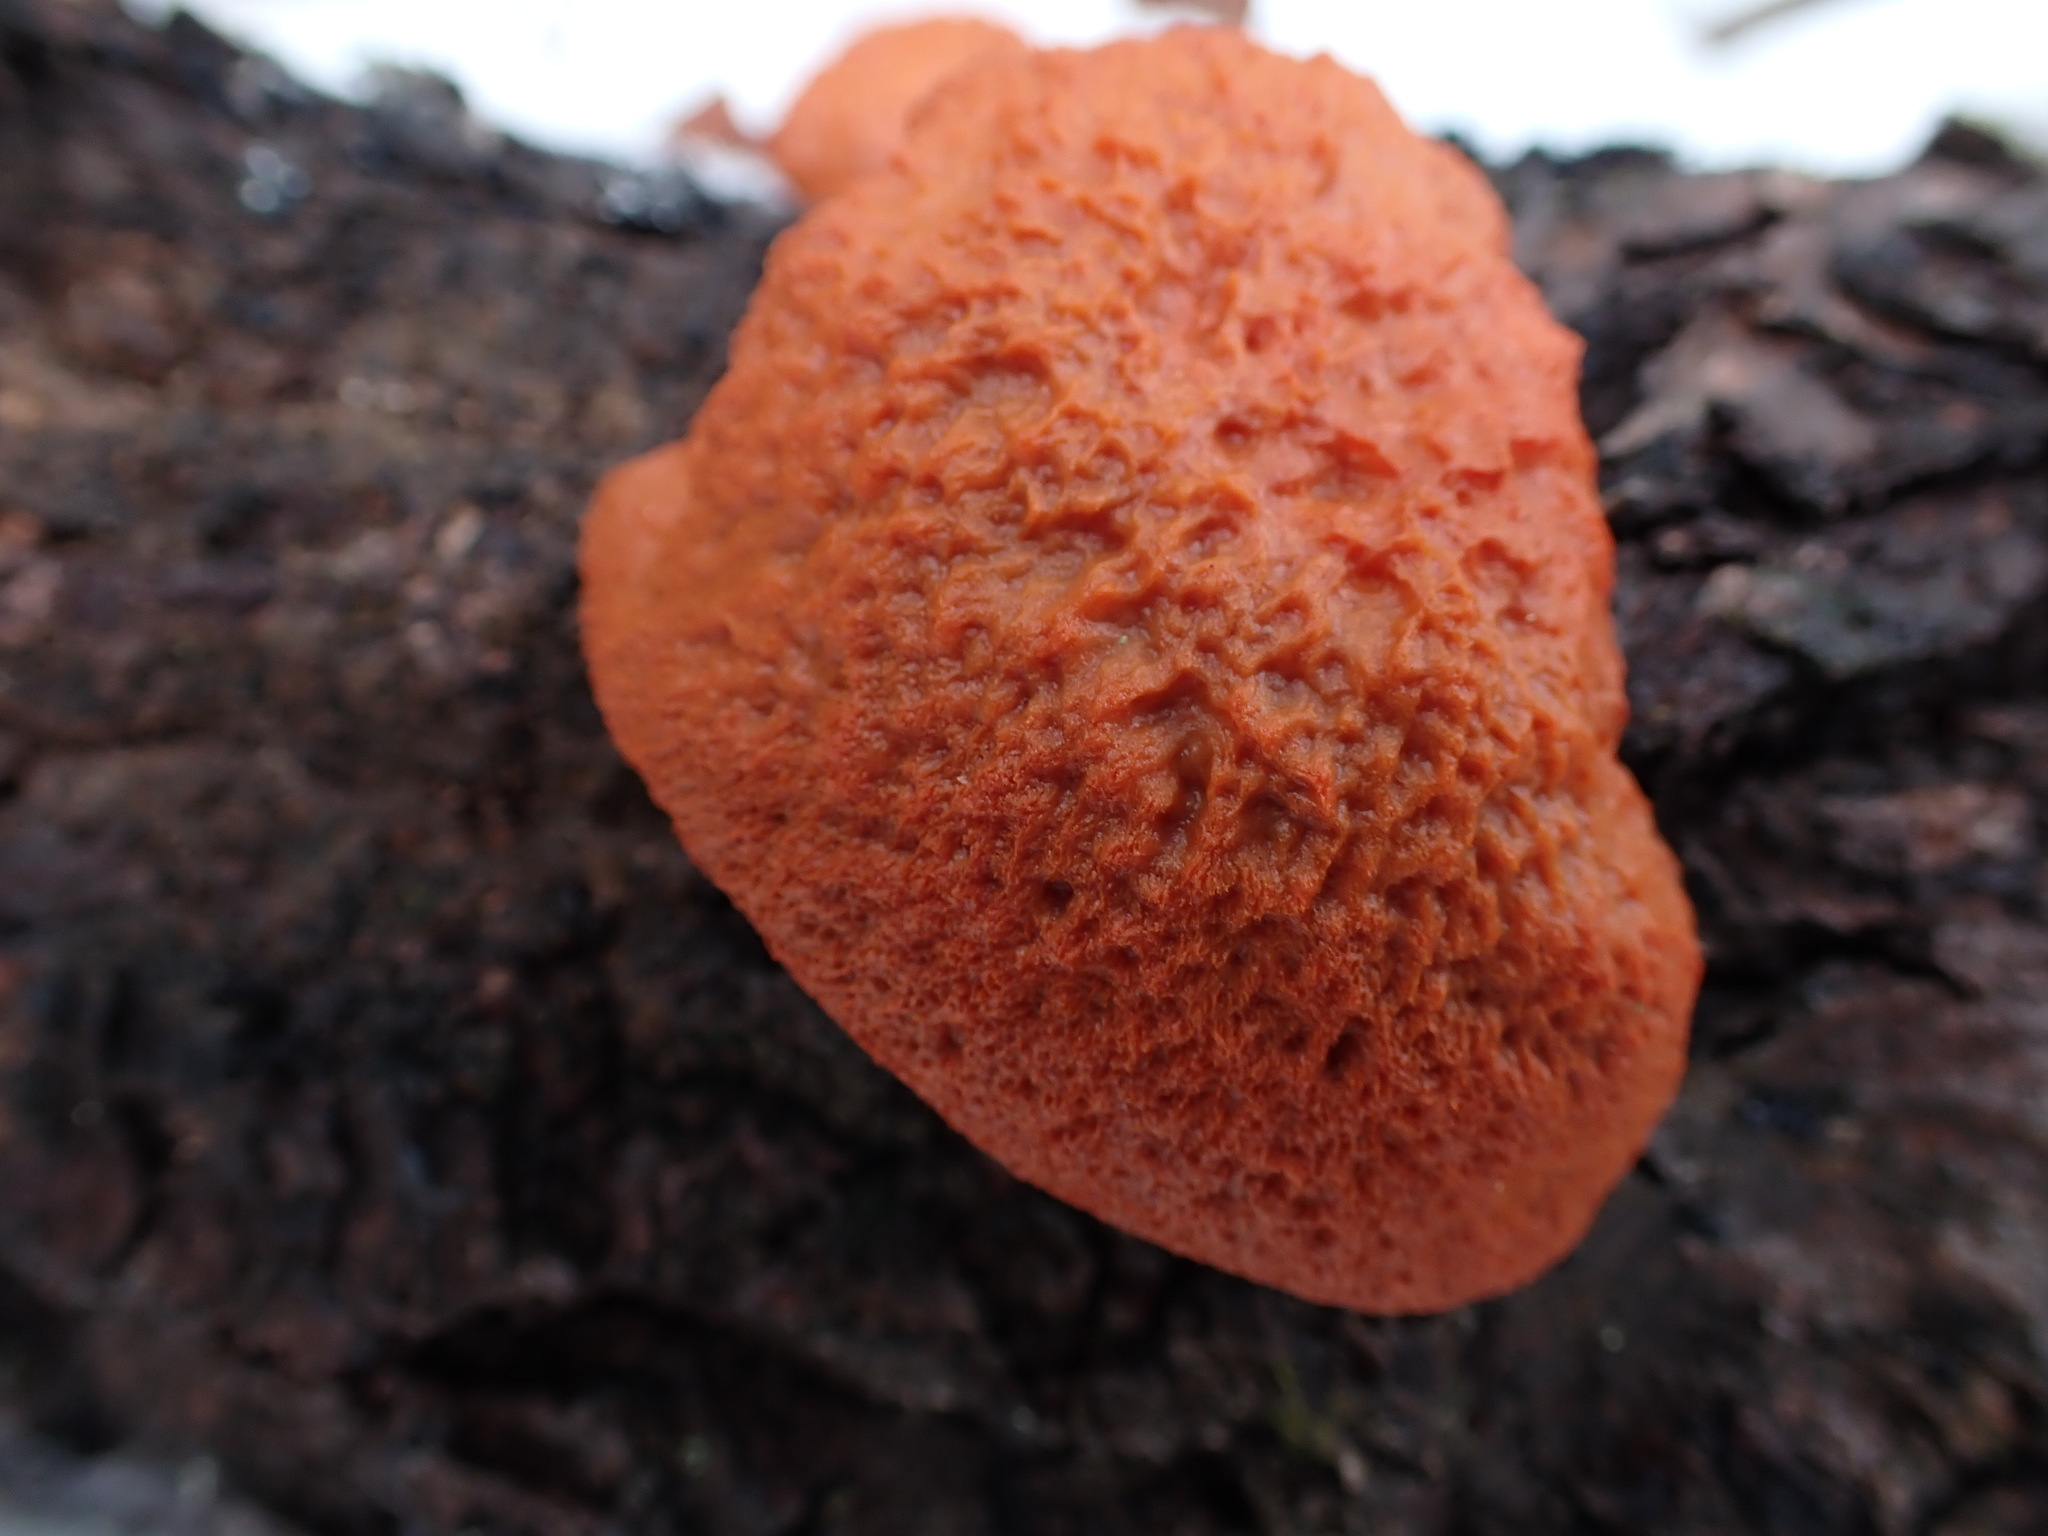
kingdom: Fungi
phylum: Basidiomycota
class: Agaricomycetes
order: Polyporales
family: Polyporaceae
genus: Trametes
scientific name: Trametes cinnabarina
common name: Northern cinnabar polypore
